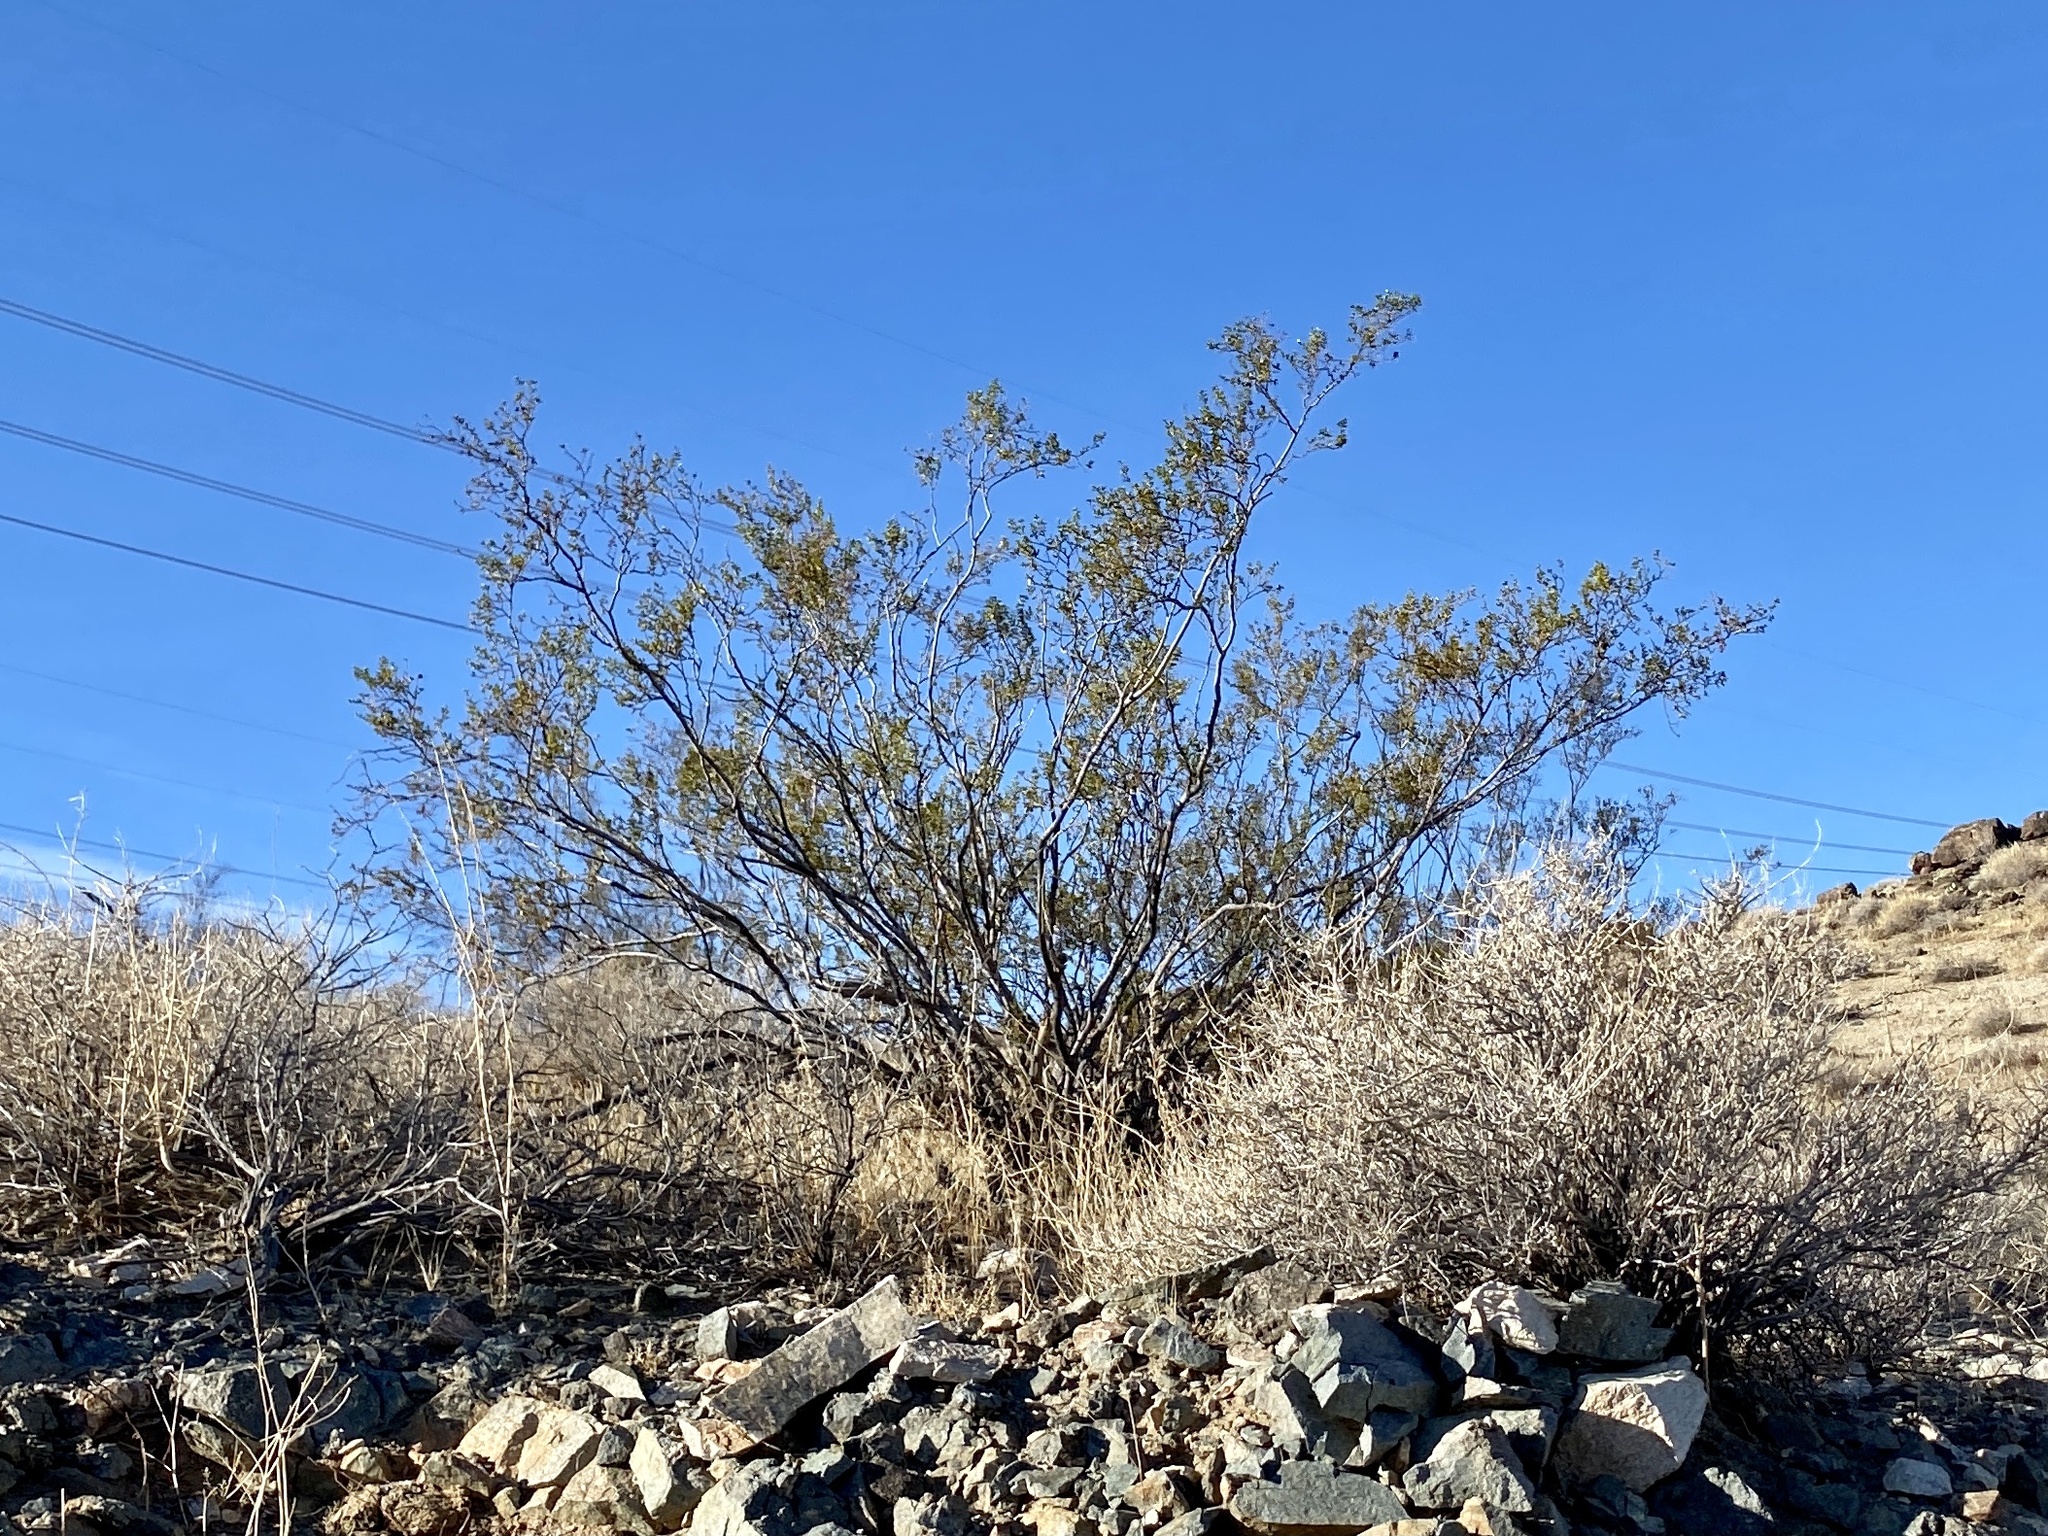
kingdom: Plantae
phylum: Tracheophyta
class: Magnoliopsida
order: Zygophyllales
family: Zygophyllaceae
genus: Larrea
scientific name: Larrea tridentata
